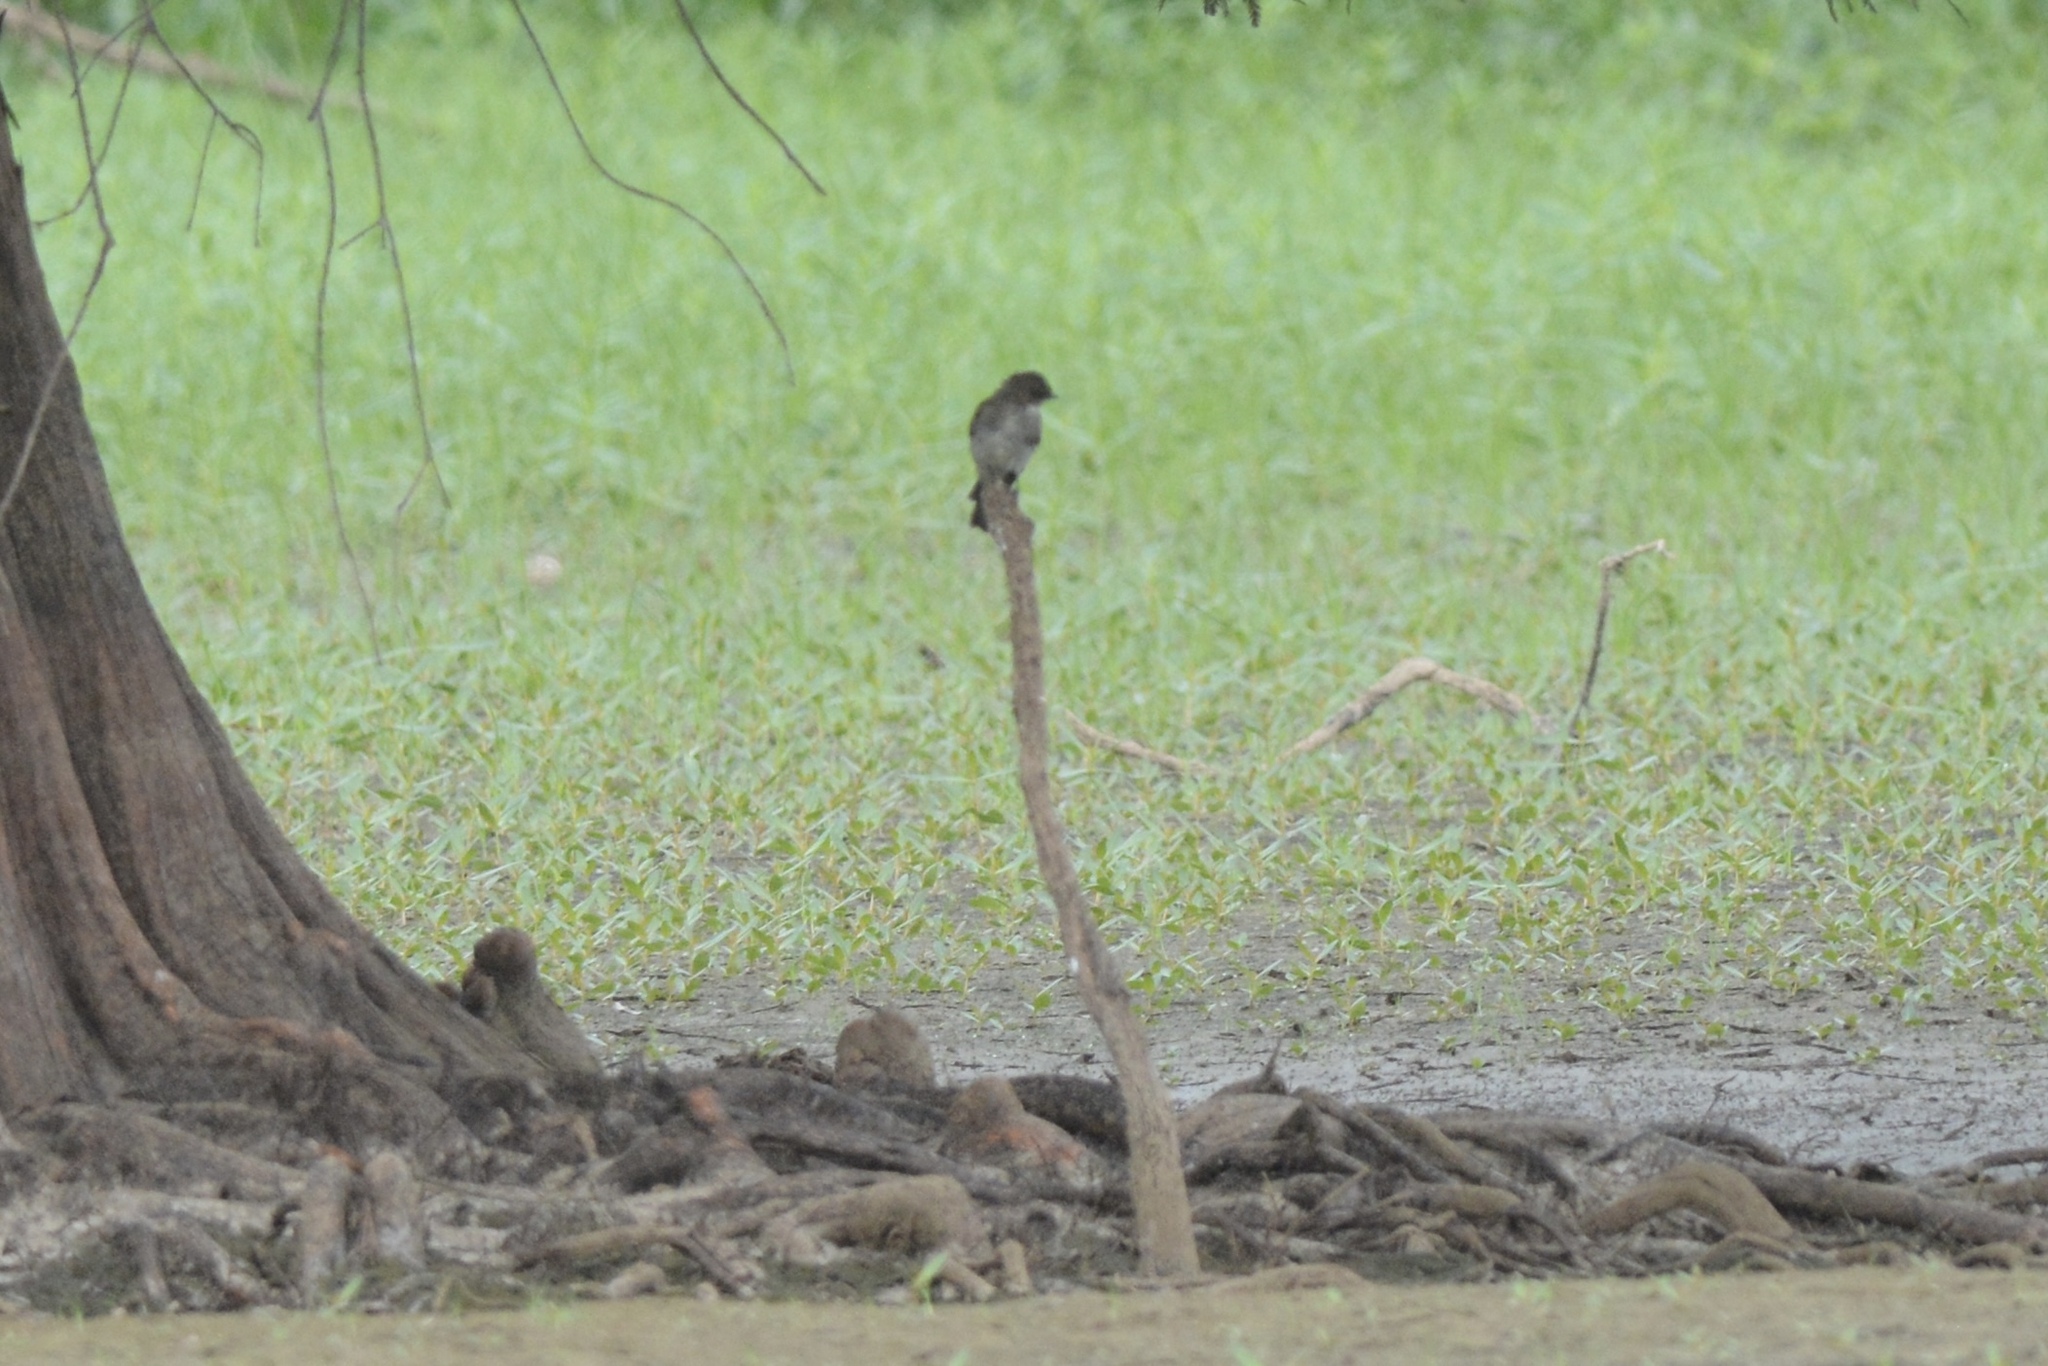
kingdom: Animalia
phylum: Chordata
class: Aves
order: Passeriformes
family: Tyrannidae
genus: Sayornis
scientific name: Sayornis phoebe
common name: Eastern phoebe
